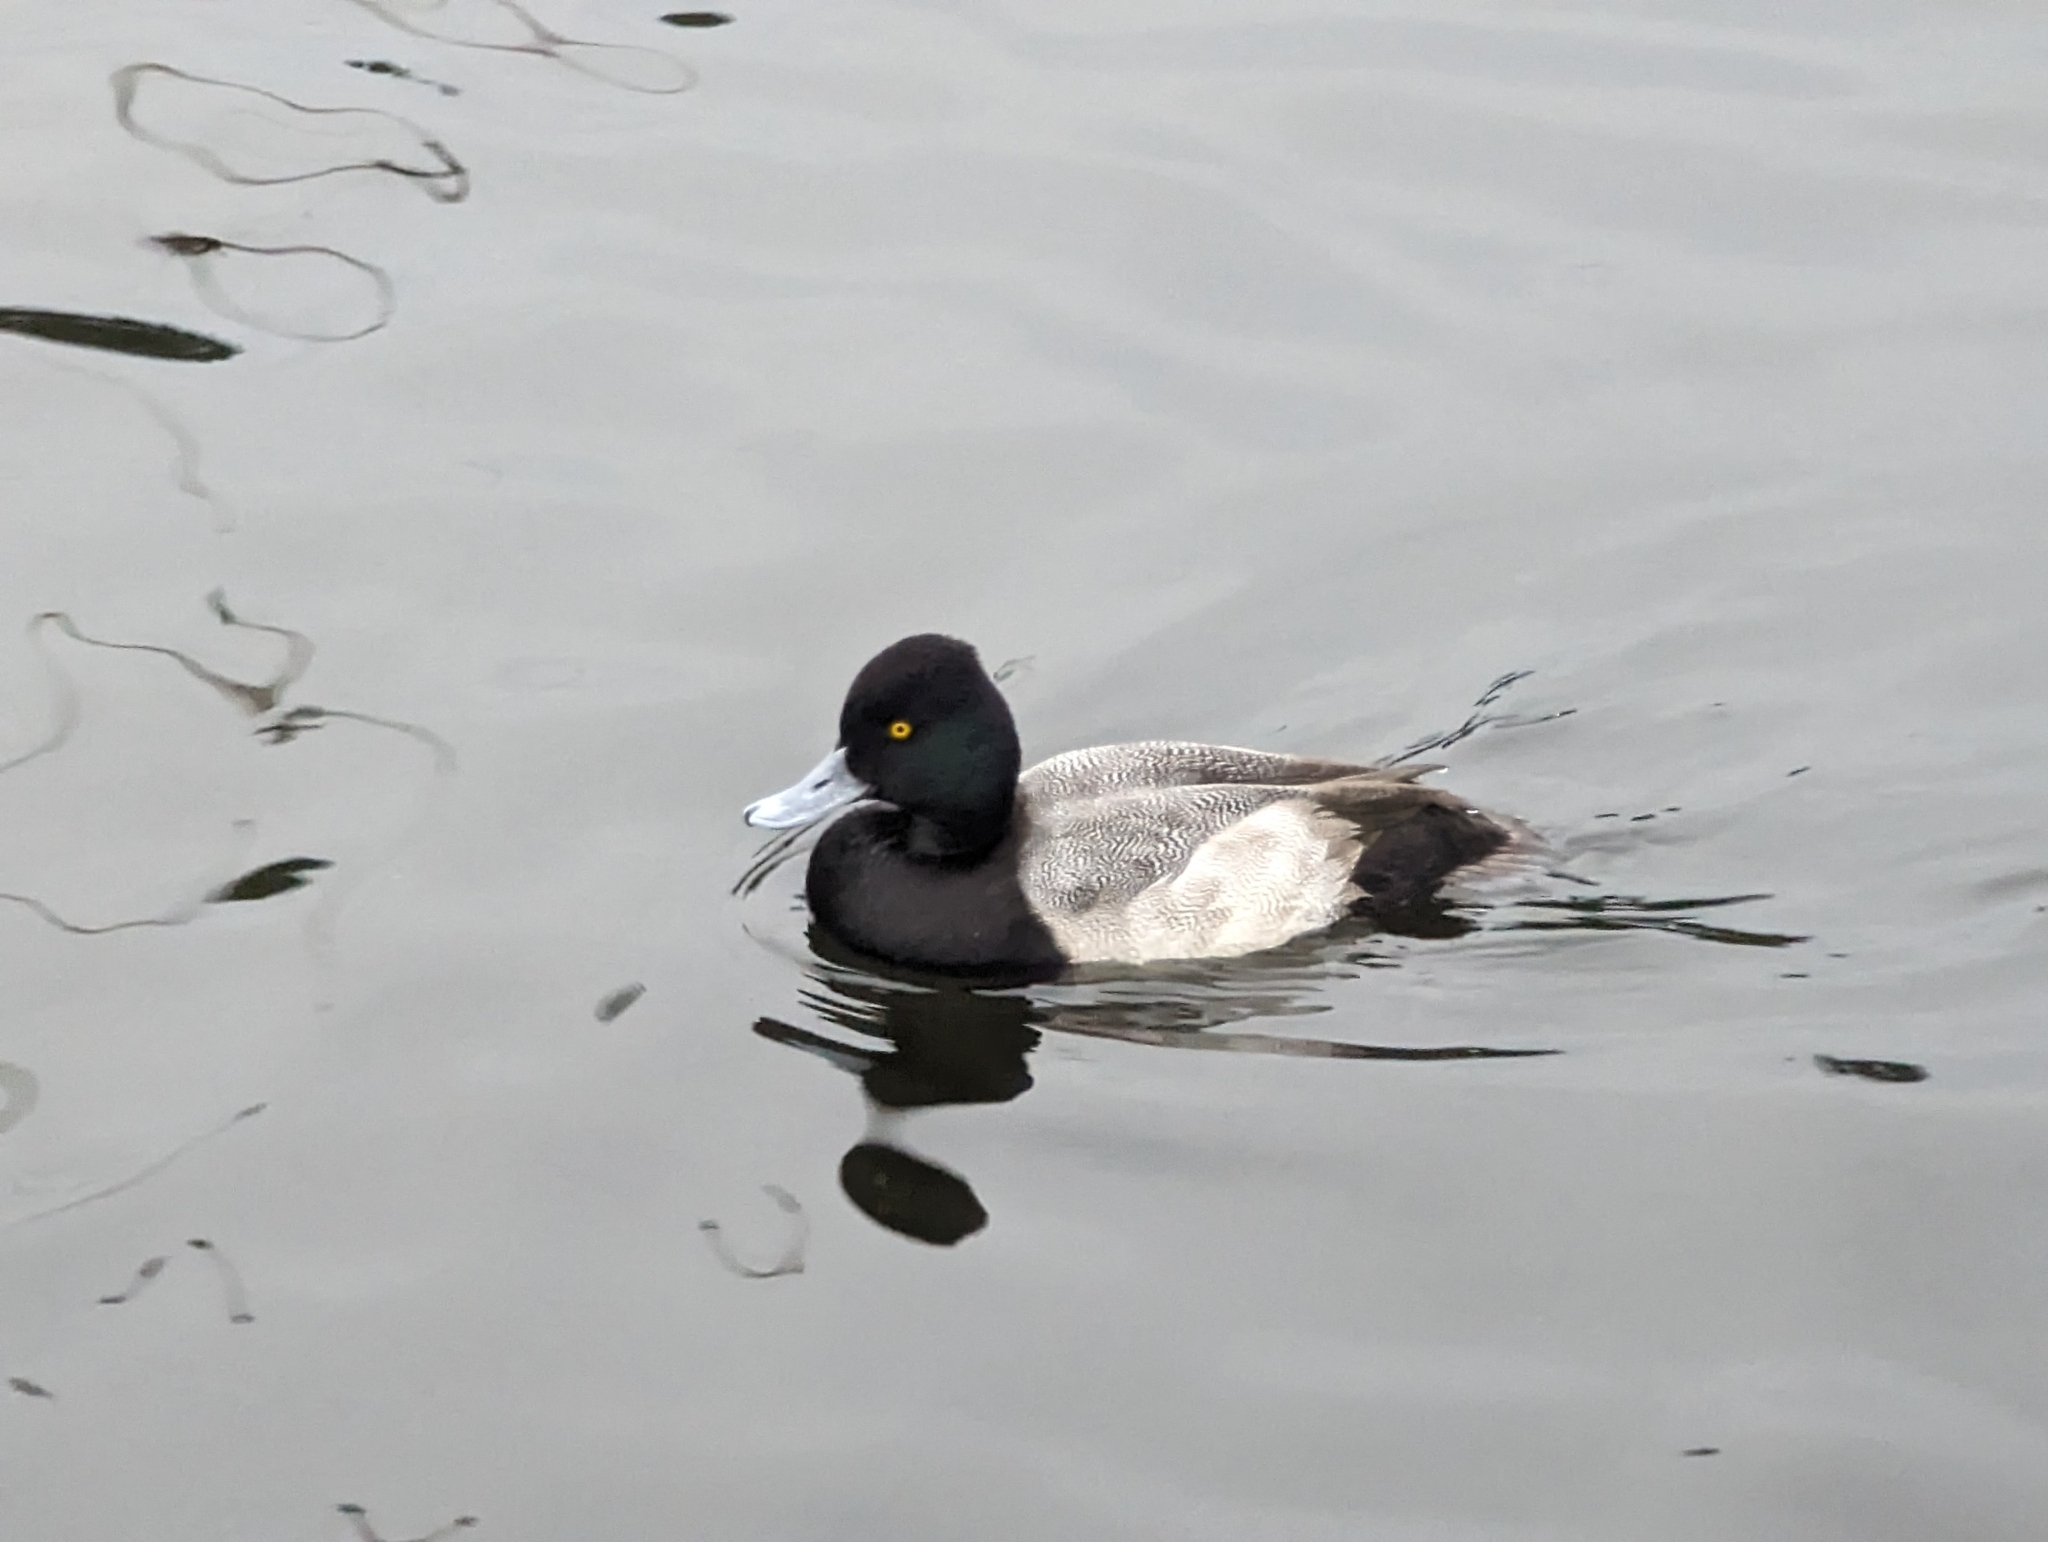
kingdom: Animalia
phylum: Chordata
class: Aves
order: Anseriformes
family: Anatidae
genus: Aythya
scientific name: Aythya affinis
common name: Lesser scaup
